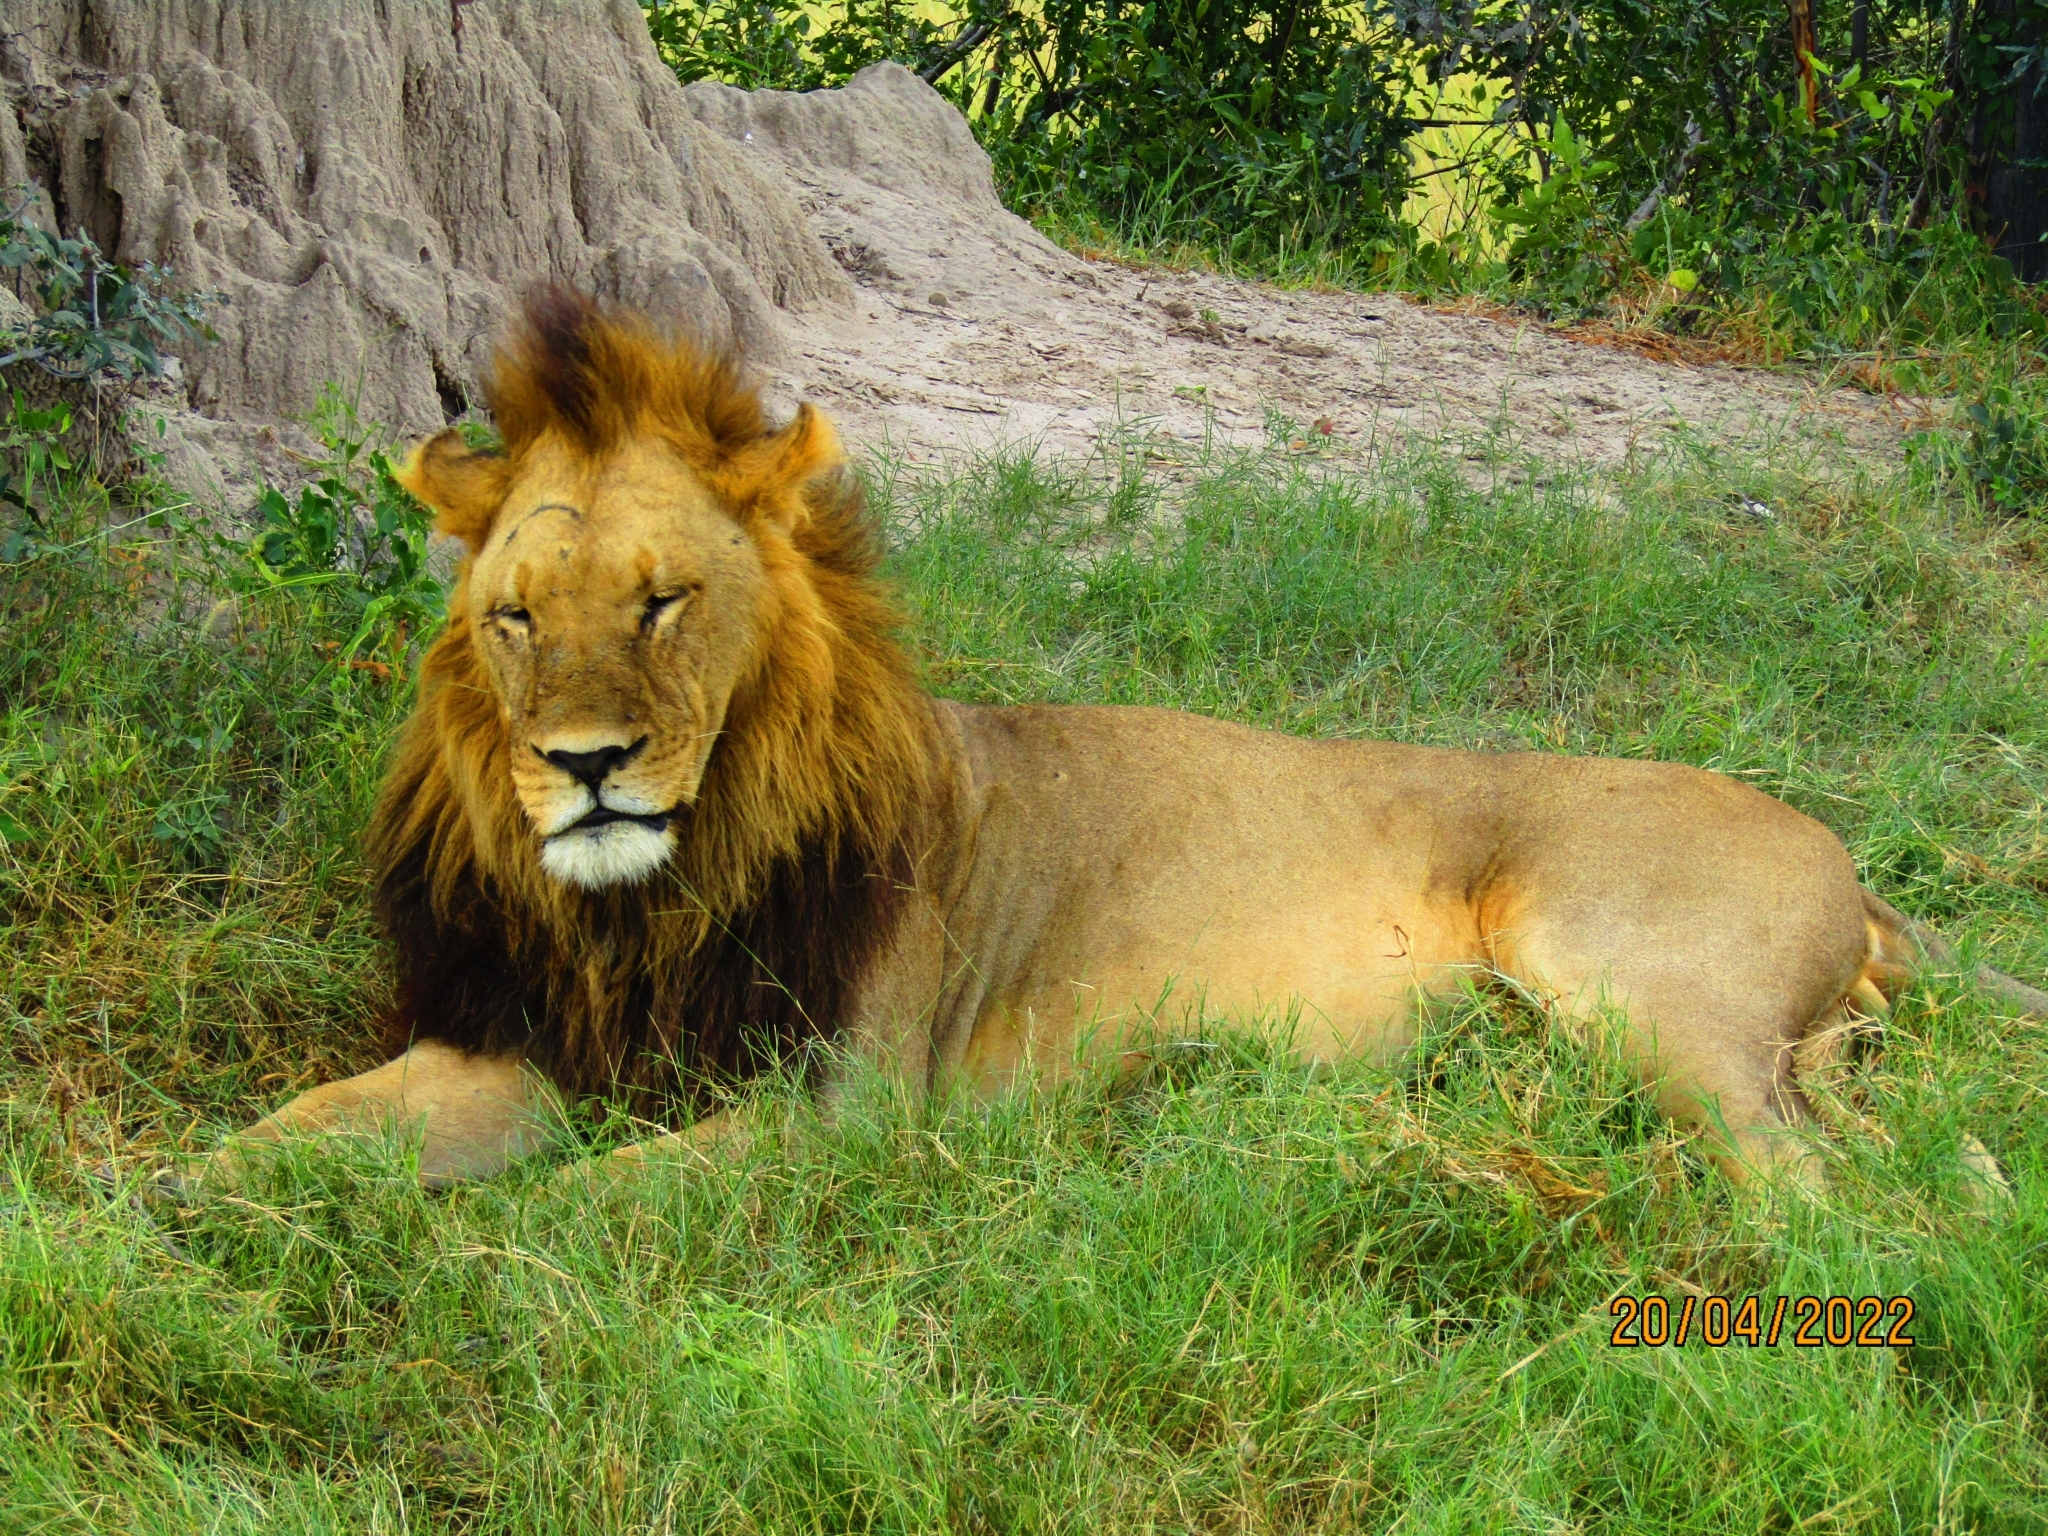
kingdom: Animalia
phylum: Chordata
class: Mammalia
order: Carnivora
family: Felidae
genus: Panthera
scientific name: Panthera leo
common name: Lion
